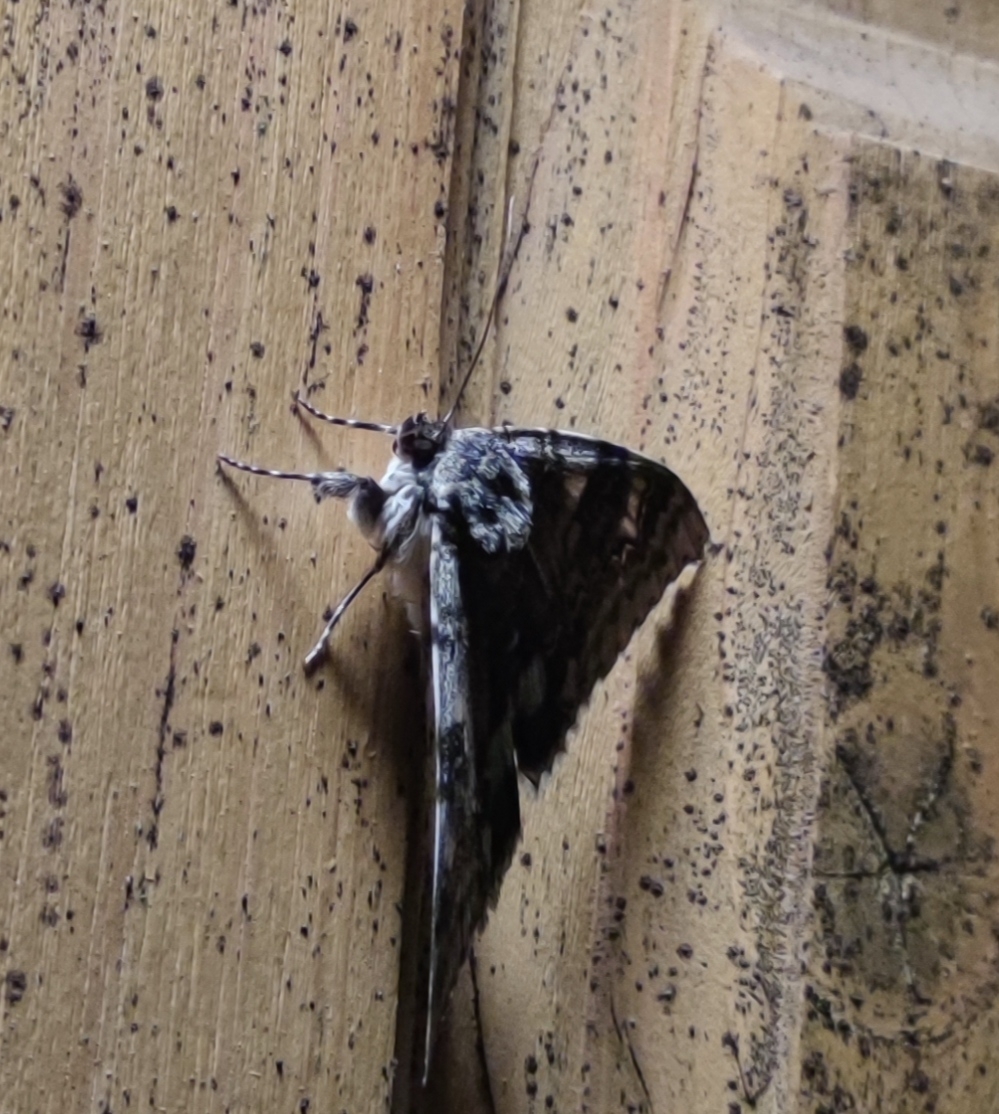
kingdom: Animalia
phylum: Arthropoda
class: Insecta
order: Lepidoptera
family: Erebidae
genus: Catocala
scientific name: Catocala fraxini
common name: Clifden nonpareil
